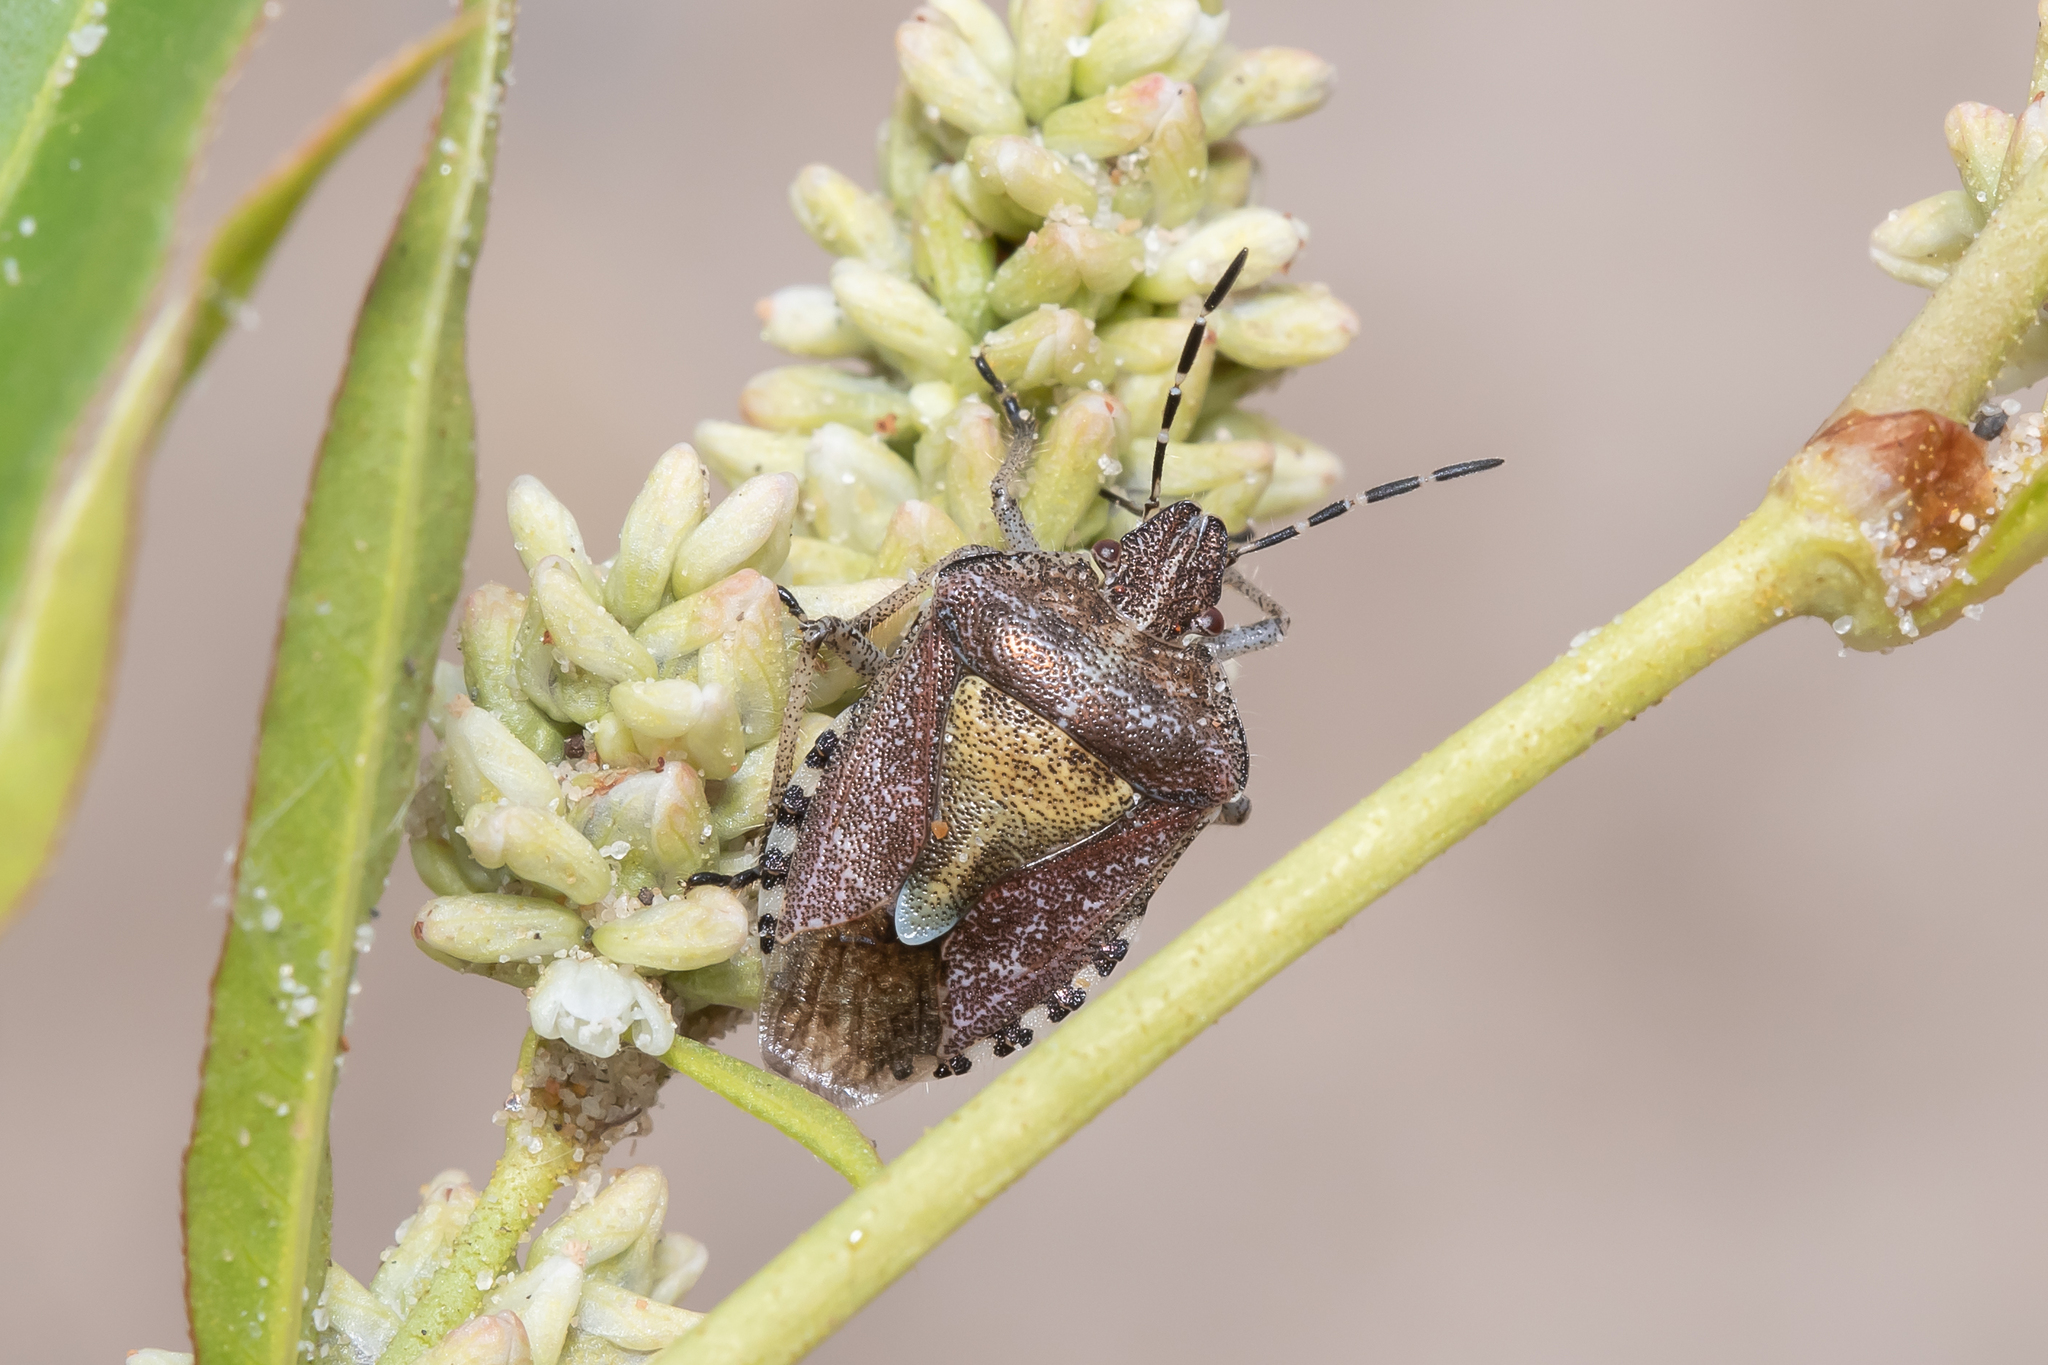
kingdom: Animalia
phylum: Arthropoda
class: Insecta
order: Hemiptera
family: Pentatomidae
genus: Dolycoris
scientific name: Dolycoris baccarum
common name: Sloe bug
